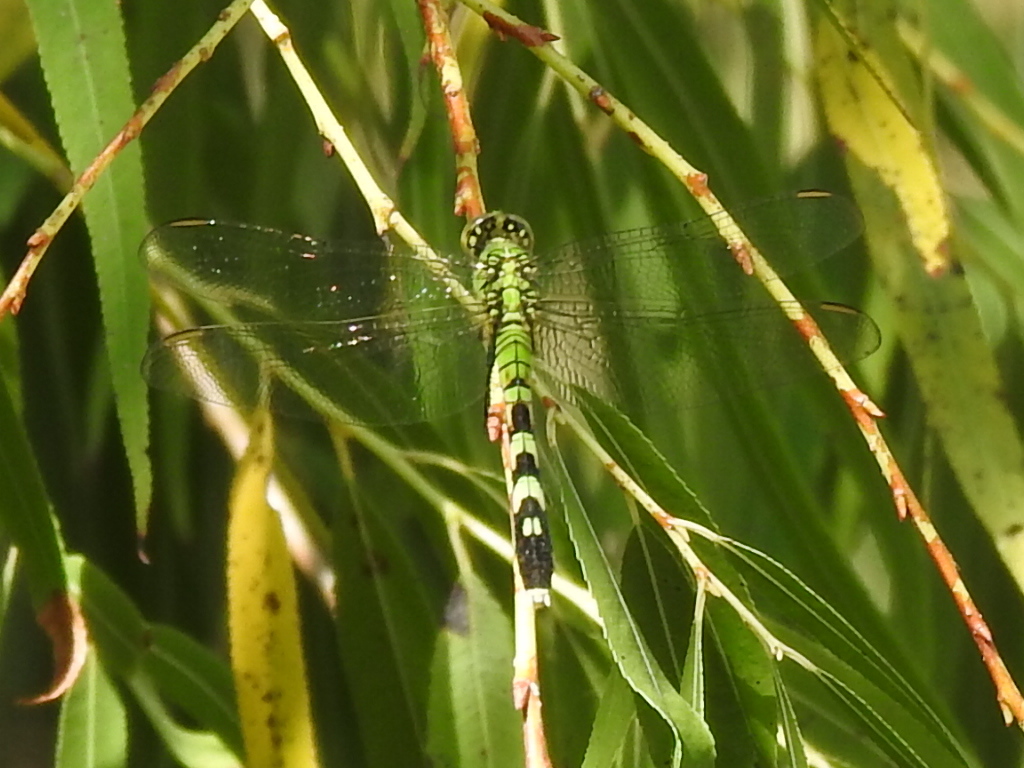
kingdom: Animalia
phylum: Arthropoda
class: Insecta
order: Odonata
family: Libellulidae
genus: Erythemis
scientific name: Erythemis simplicicollis
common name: Eastern pondhawk
